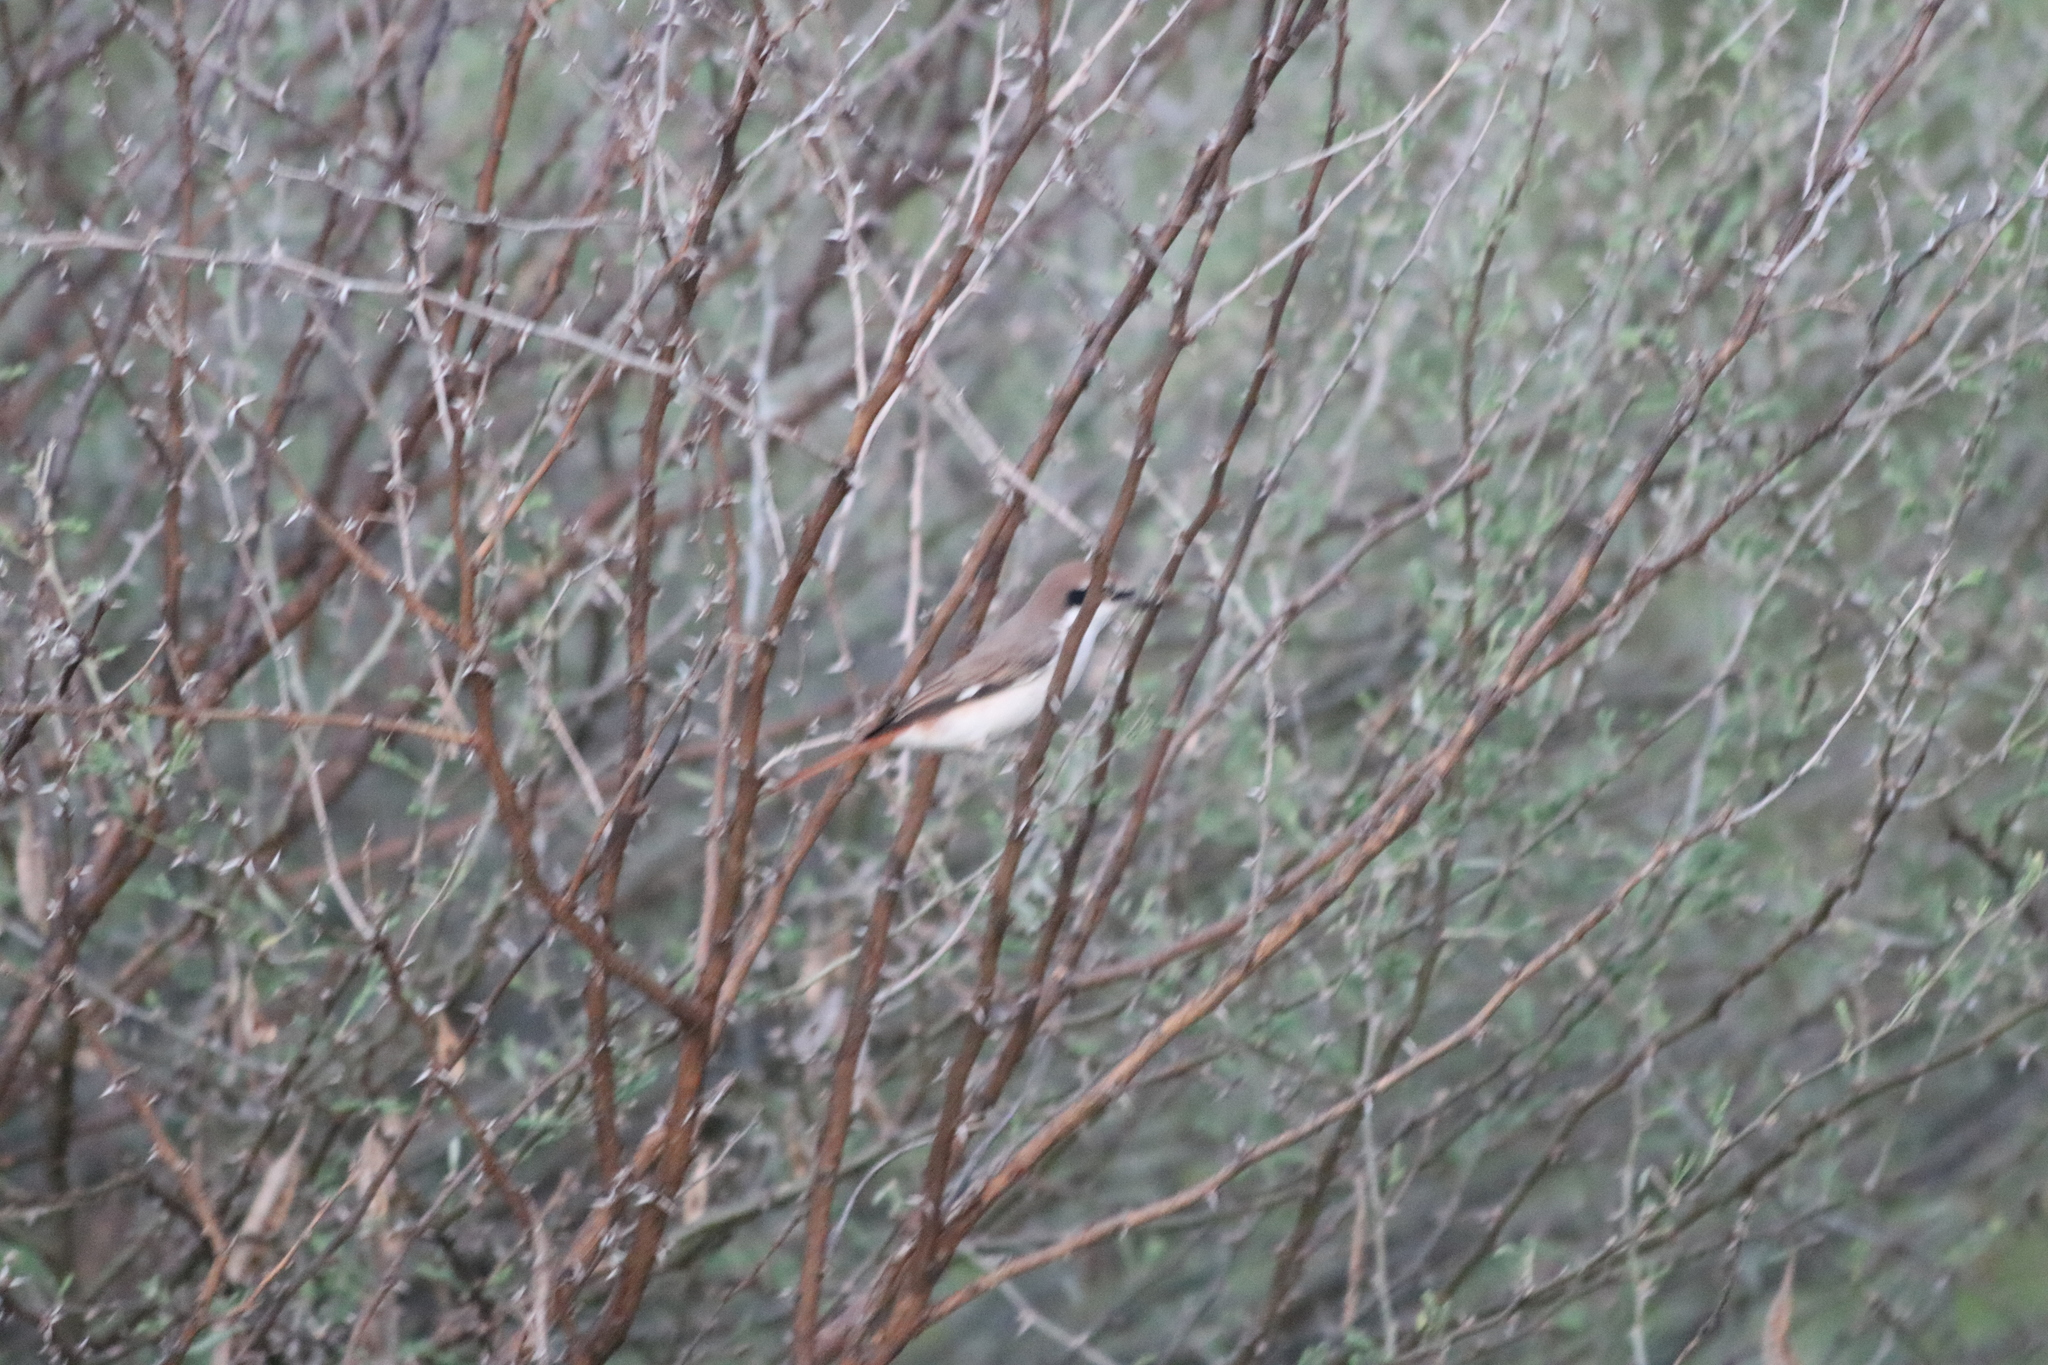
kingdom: Animalia
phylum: Chordata
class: Aves
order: Passeriformes
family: Laniidae
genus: Lanius
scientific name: Lanius phoenicuroides
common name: Red-tailed shrike
